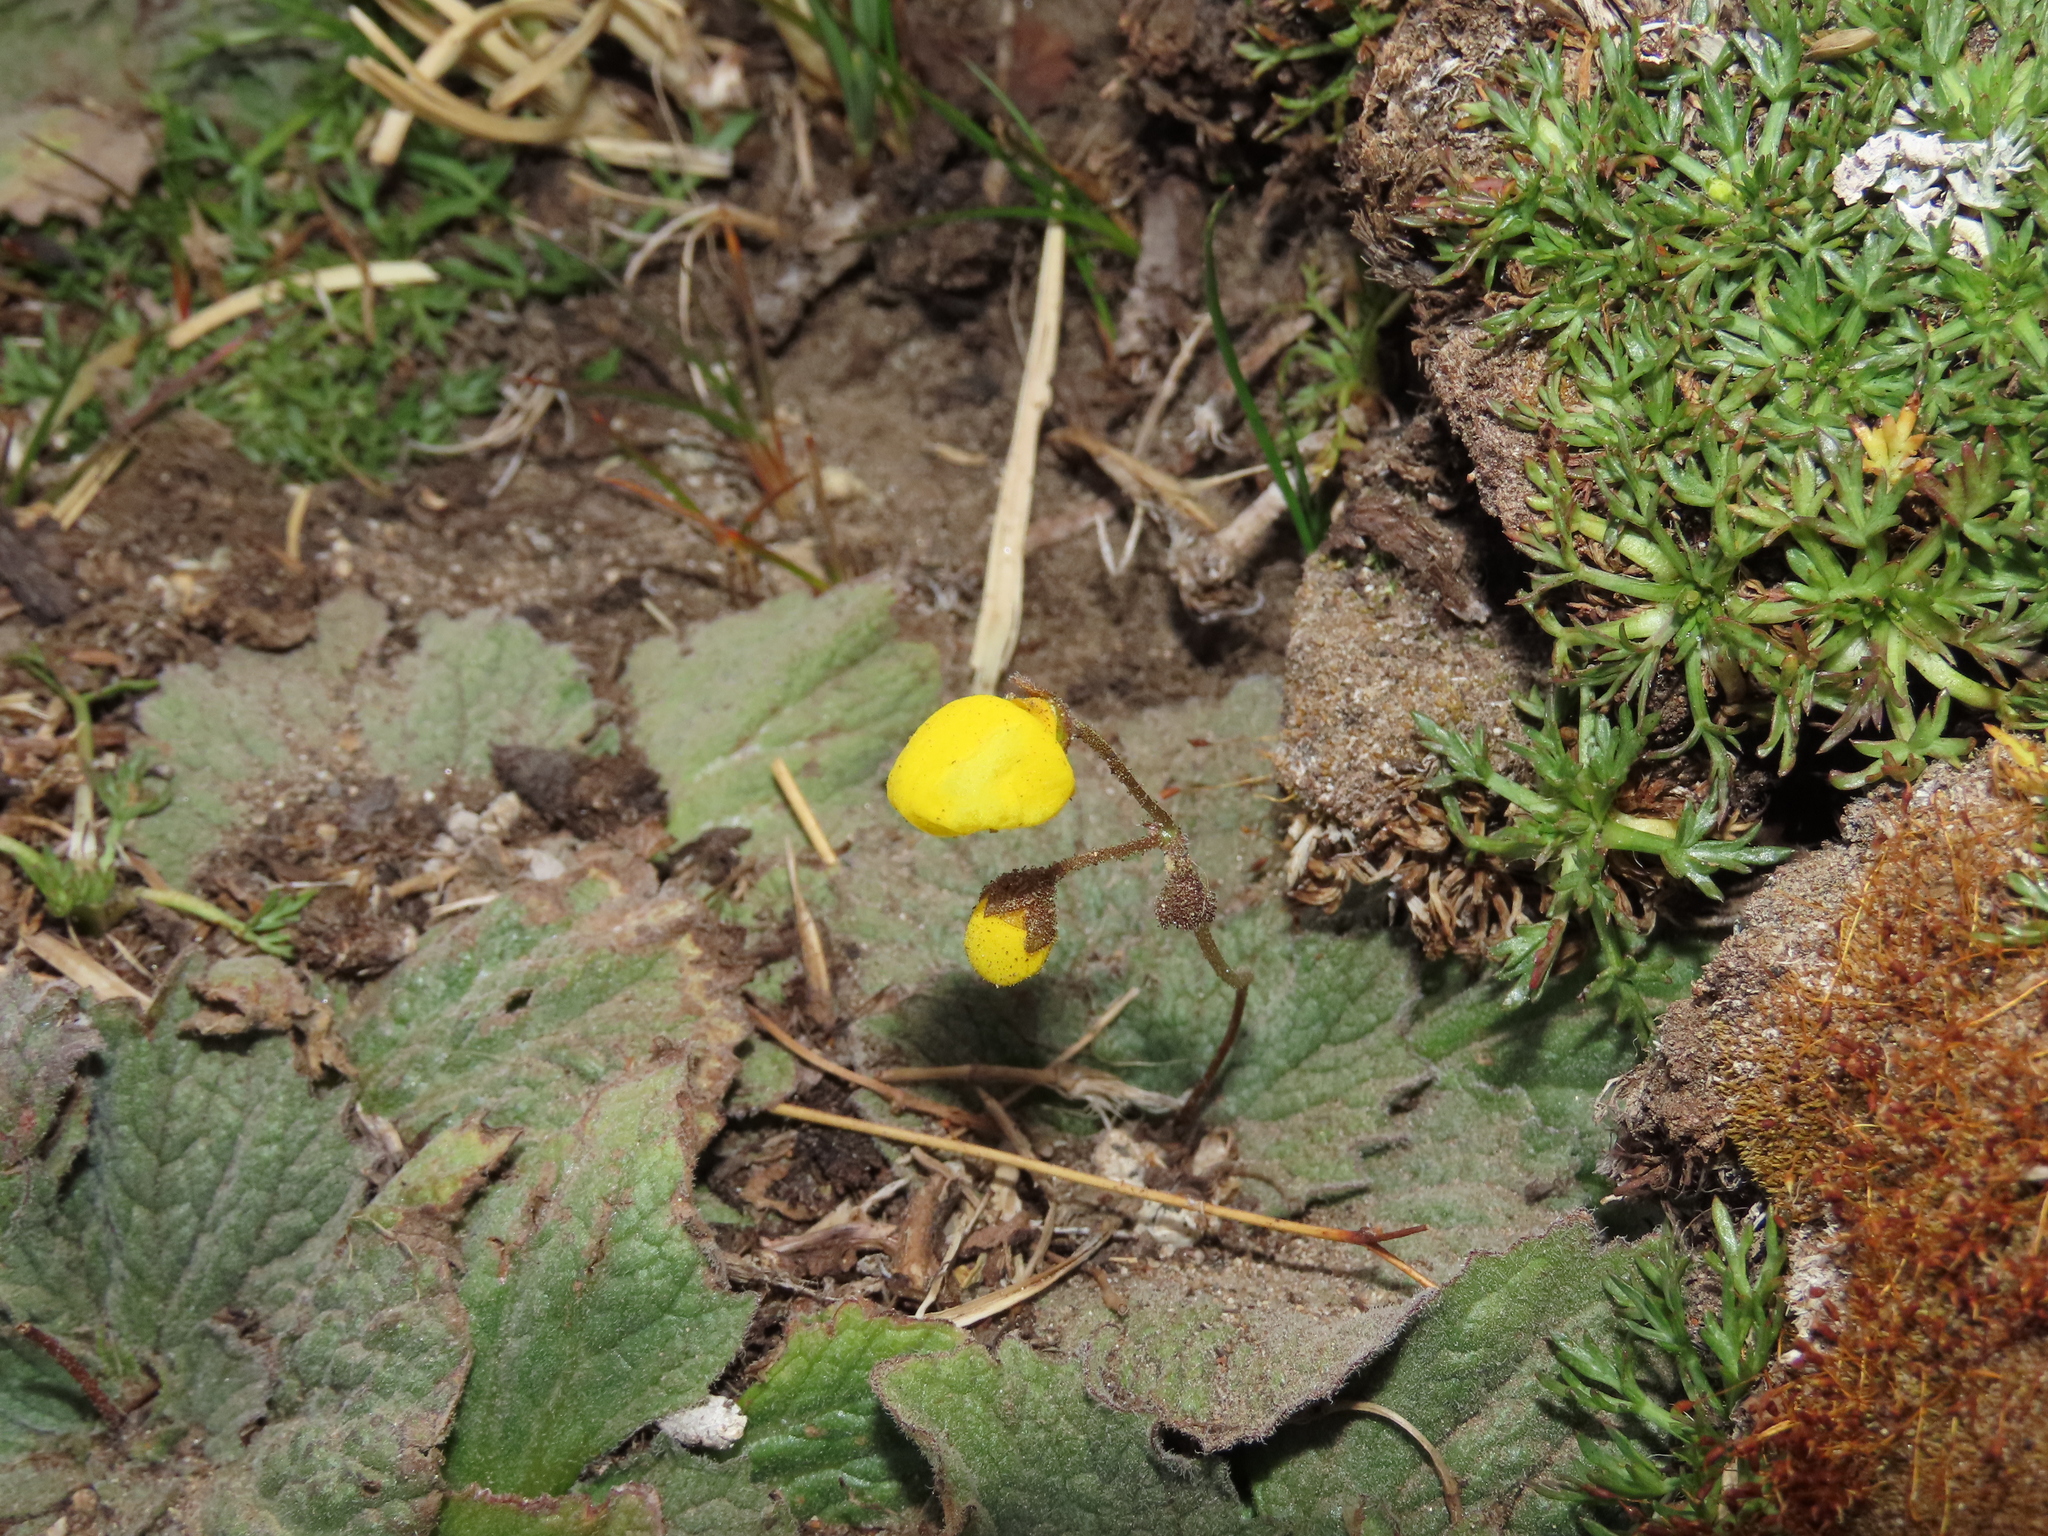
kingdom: Plantae
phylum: Tracheophyta
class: Magnoliopsida
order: Lamiales
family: Calceolariaceae
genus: Calceolaria
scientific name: Calceolaria filicaulis
